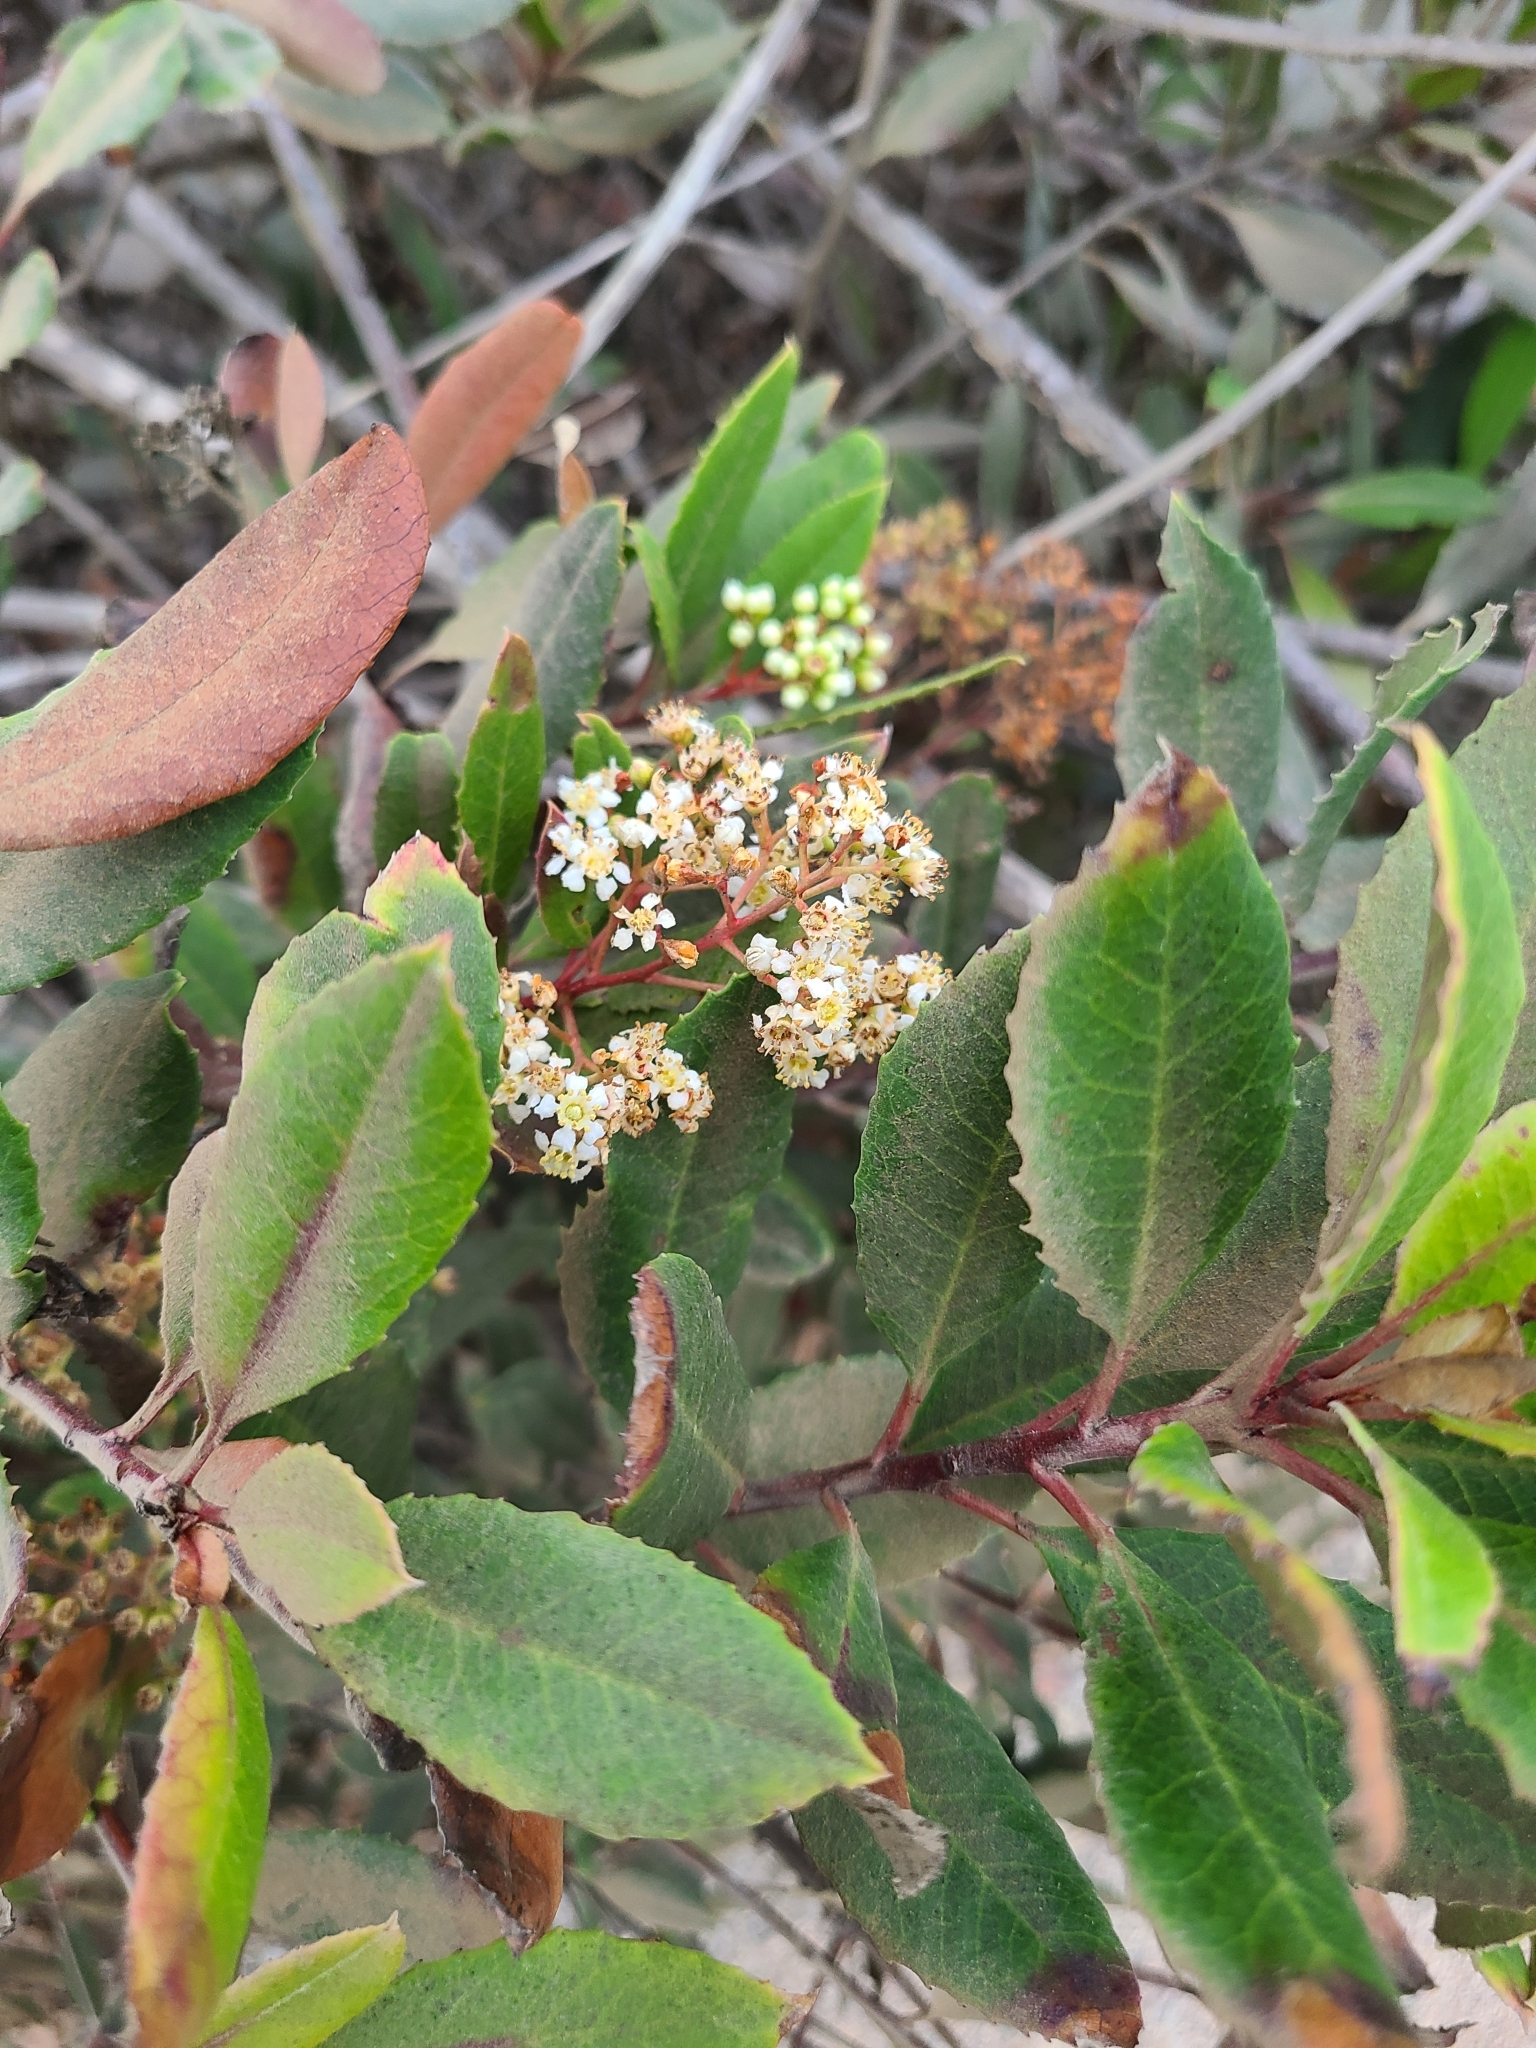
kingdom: Plantae
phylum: Tracheophyta
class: Magnoliopsida
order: Rosales
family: Rosaceae
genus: Heteromeles
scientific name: Heteromeles arbutifolia
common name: California-holly
